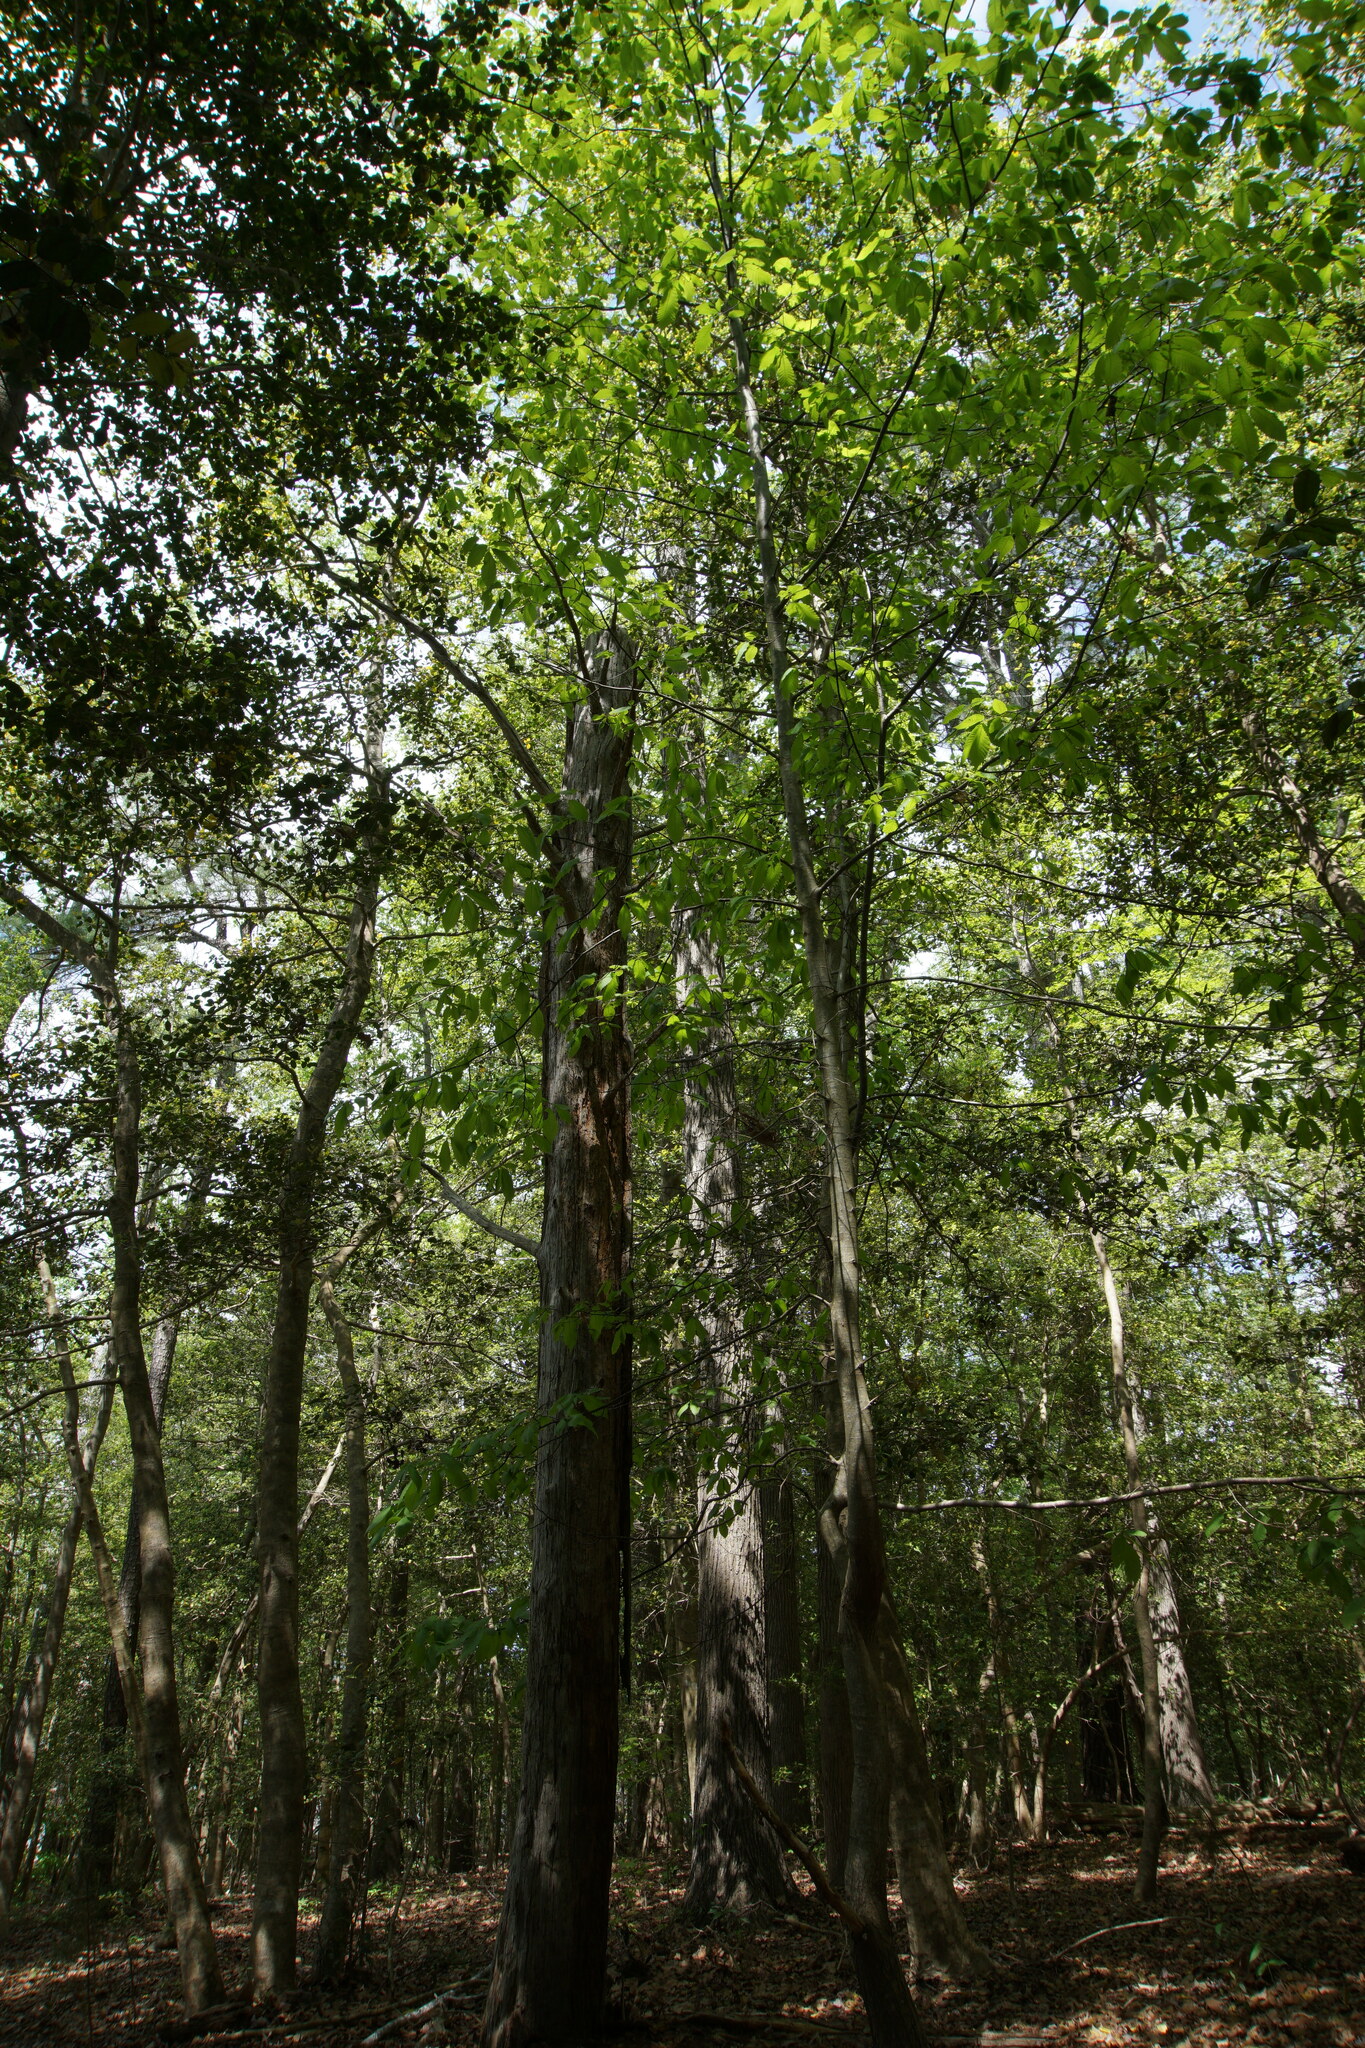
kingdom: Plantae
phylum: Tracheophyta
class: Magnoliopsida
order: Fagales
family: Fagaceae
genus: Castanea
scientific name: Castanea dentata
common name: American chestnut
